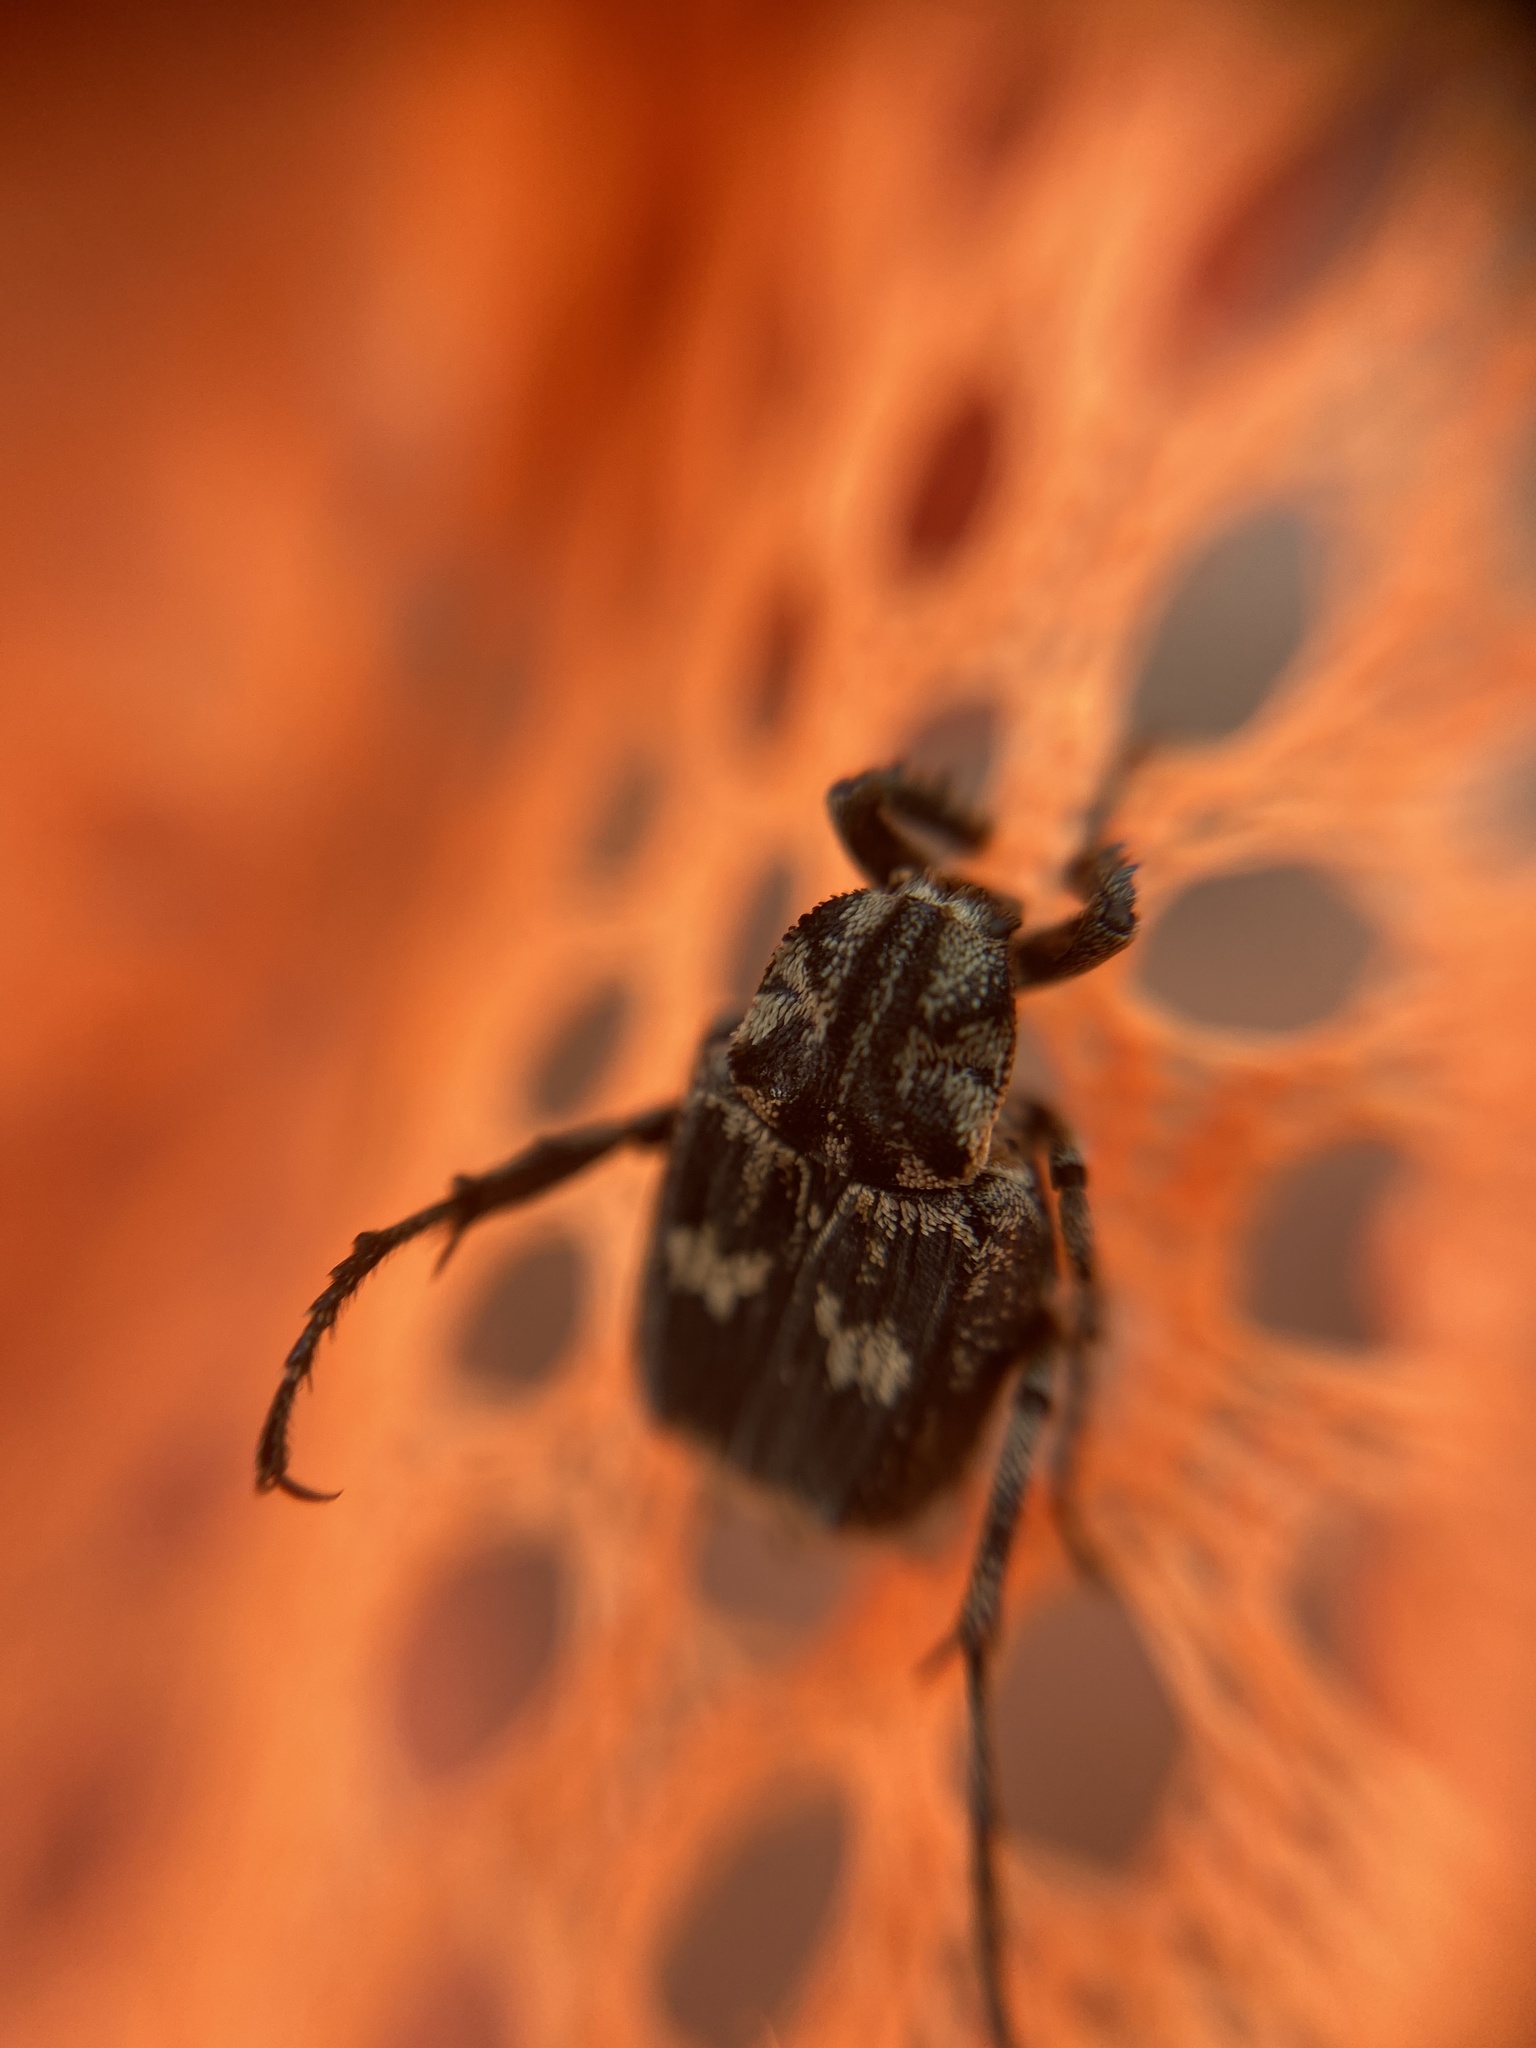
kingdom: Animalia
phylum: Arthropoda
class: Insecta
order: Coleoptera
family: Scarabaeidae
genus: Valgus
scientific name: Valgus hemipterus
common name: Bug flower chafer
